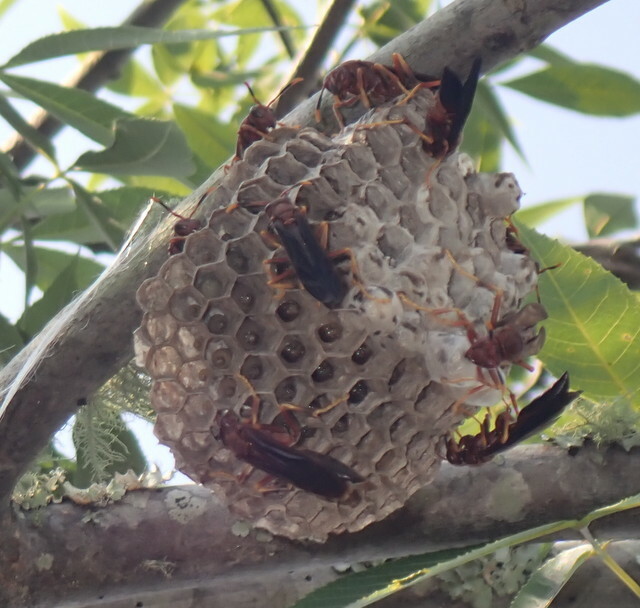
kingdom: Animalia
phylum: Arthropoda
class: Insecta
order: Hymenoptera
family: Eumenidae
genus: Polistes
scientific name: Polistes annularis
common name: Ringed paper wasp
